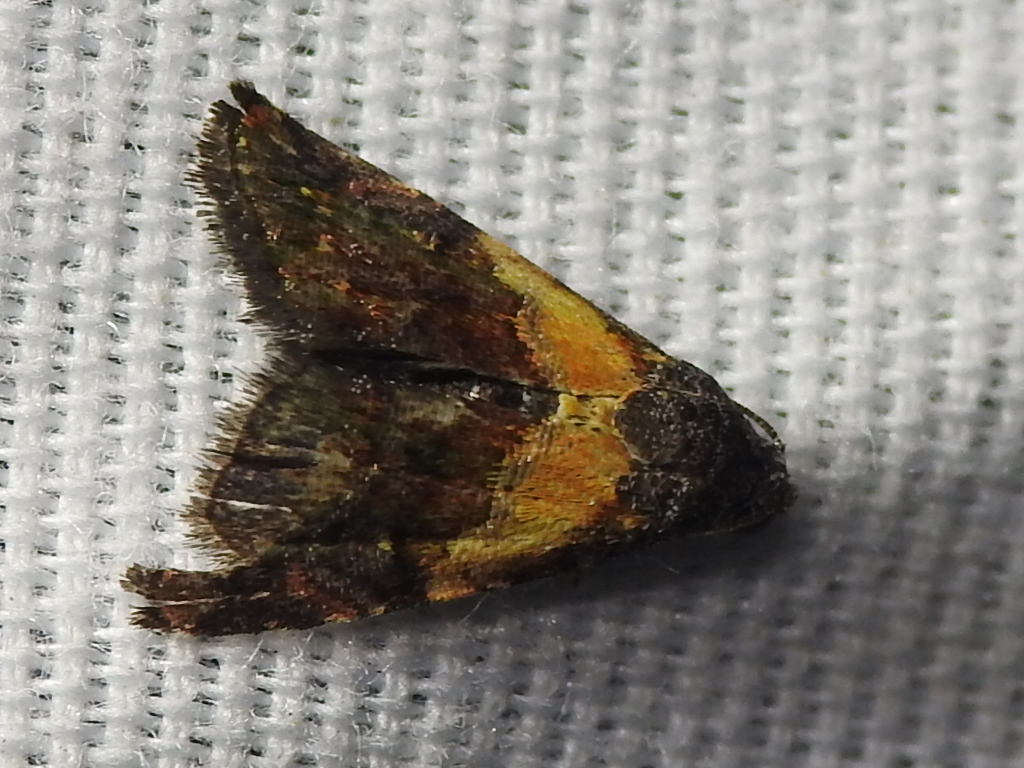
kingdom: Animalia
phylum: Arthropoda
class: Insecta
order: Lepidoptera
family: Noctuidae
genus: Tripudia
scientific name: Tripudia balteata
